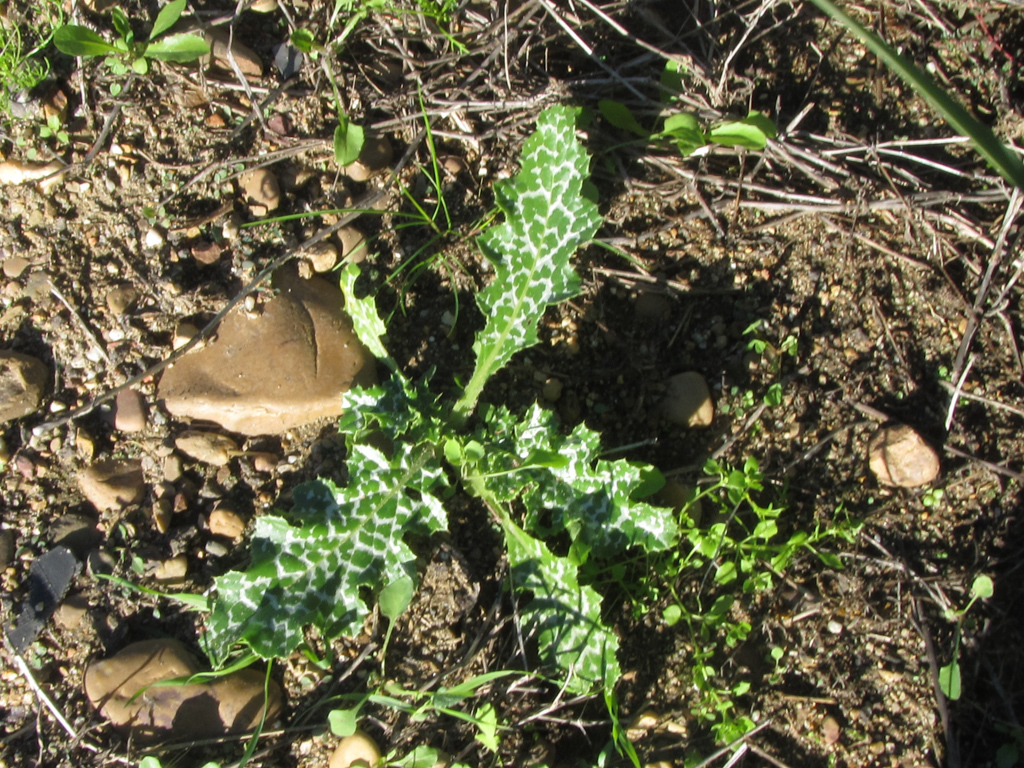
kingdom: Plantae
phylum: Tracheophyta
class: Magnoliopsida
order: Asterales
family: Asteraceae
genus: Silybum
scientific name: Silybum marianum
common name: Milk thistle
